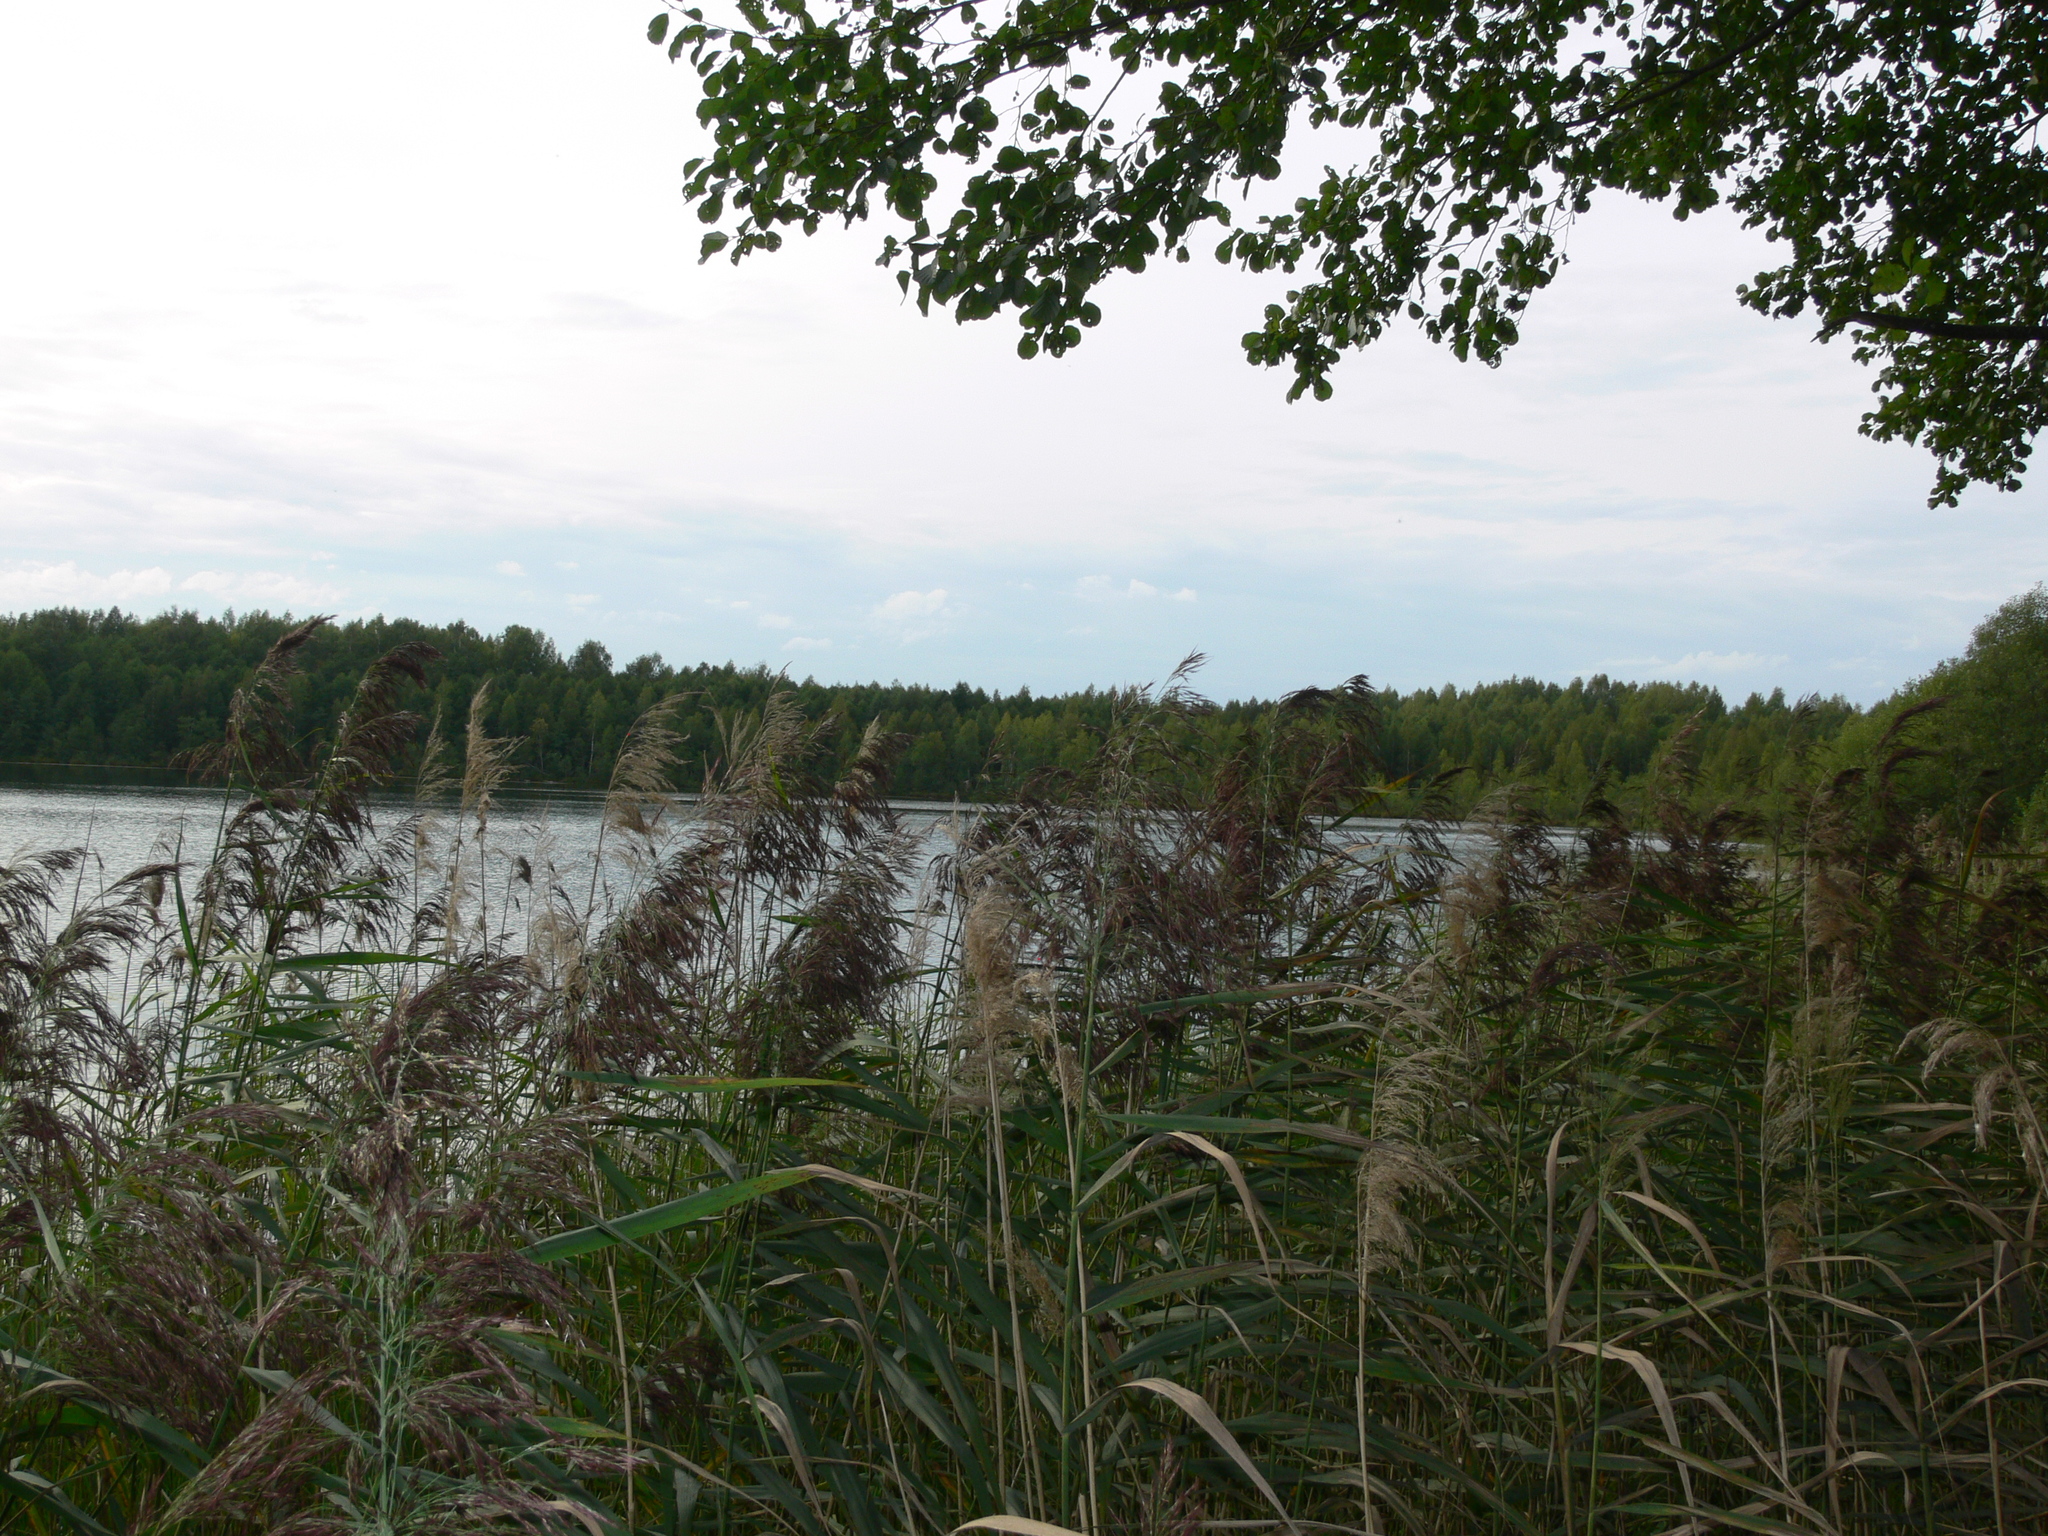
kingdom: Plantae
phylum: Tracheophyta
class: Liliopsida
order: Poales
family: Poaceae
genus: Phragmites
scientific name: Phragmites australis
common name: Common reed
